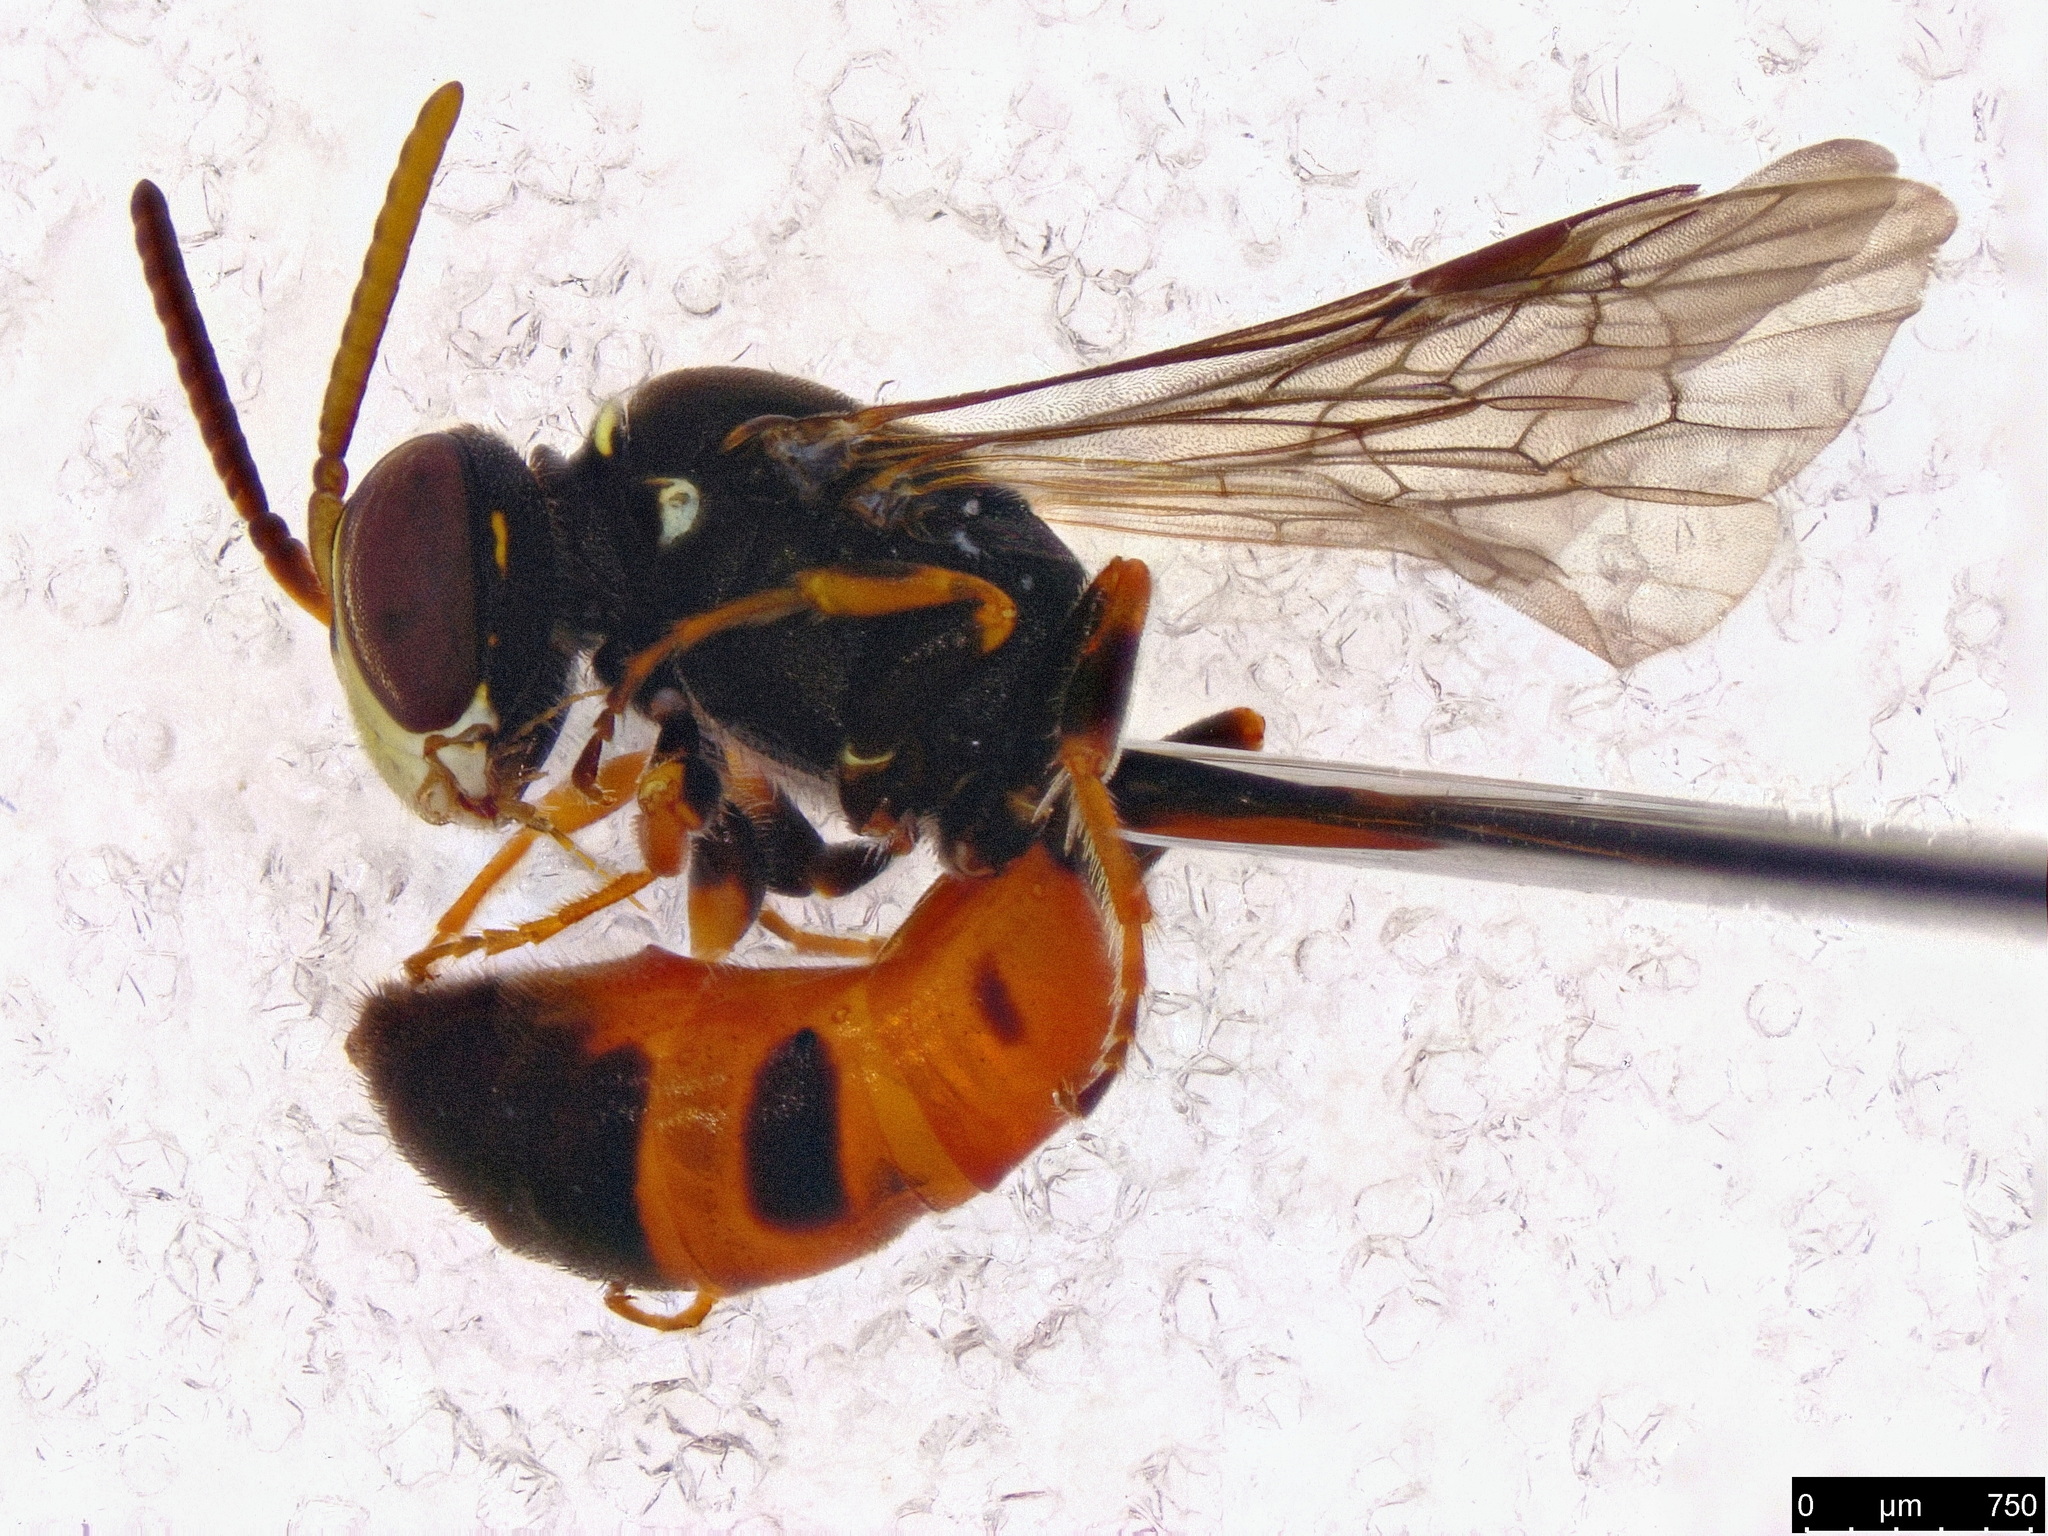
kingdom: Animalia
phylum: Arthropoda
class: Insecta
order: Hymenoptera
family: Colletidae
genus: Hylaeus
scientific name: Hylaeus littleri
